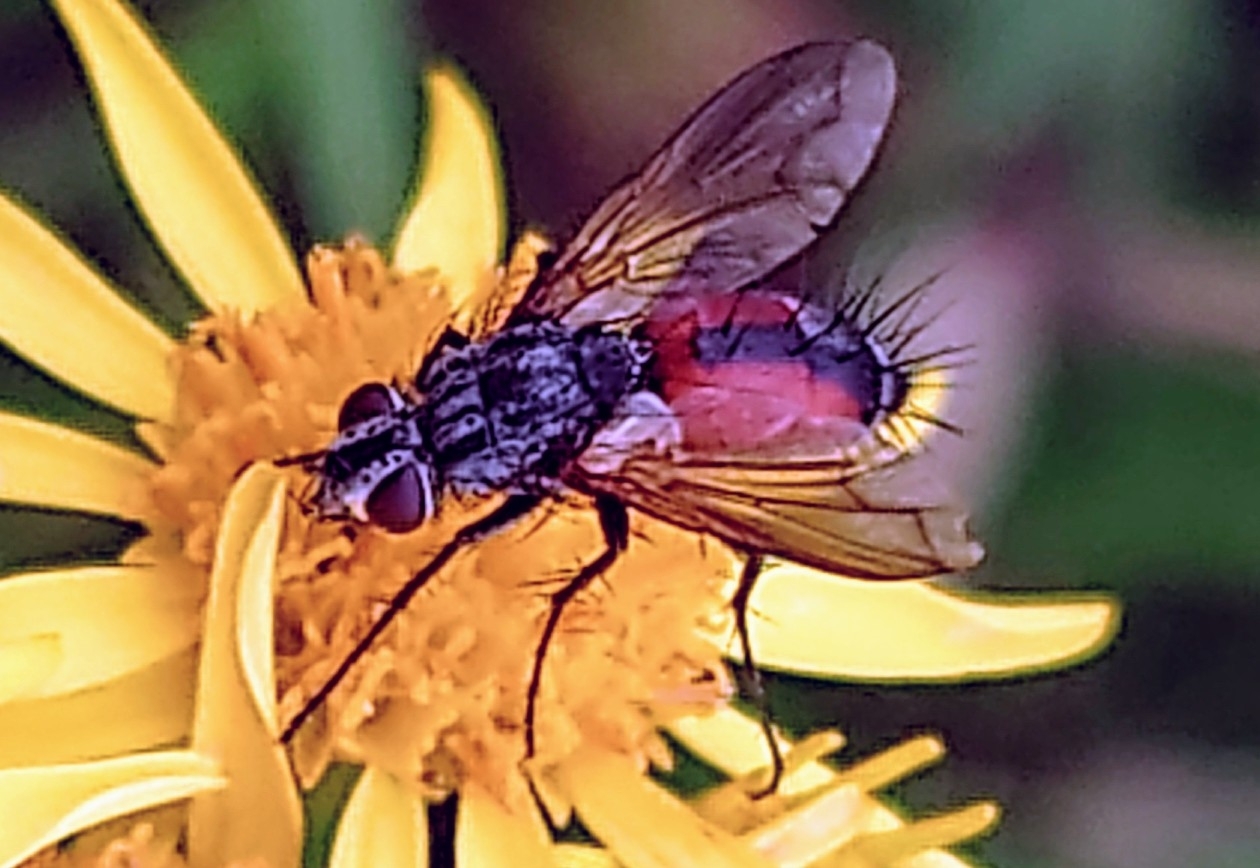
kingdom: Animalia
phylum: Arthropoda
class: Insecta
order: Diptera
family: Tachinidae
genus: Eriothrix
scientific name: Eriothrix rufomaculatus
